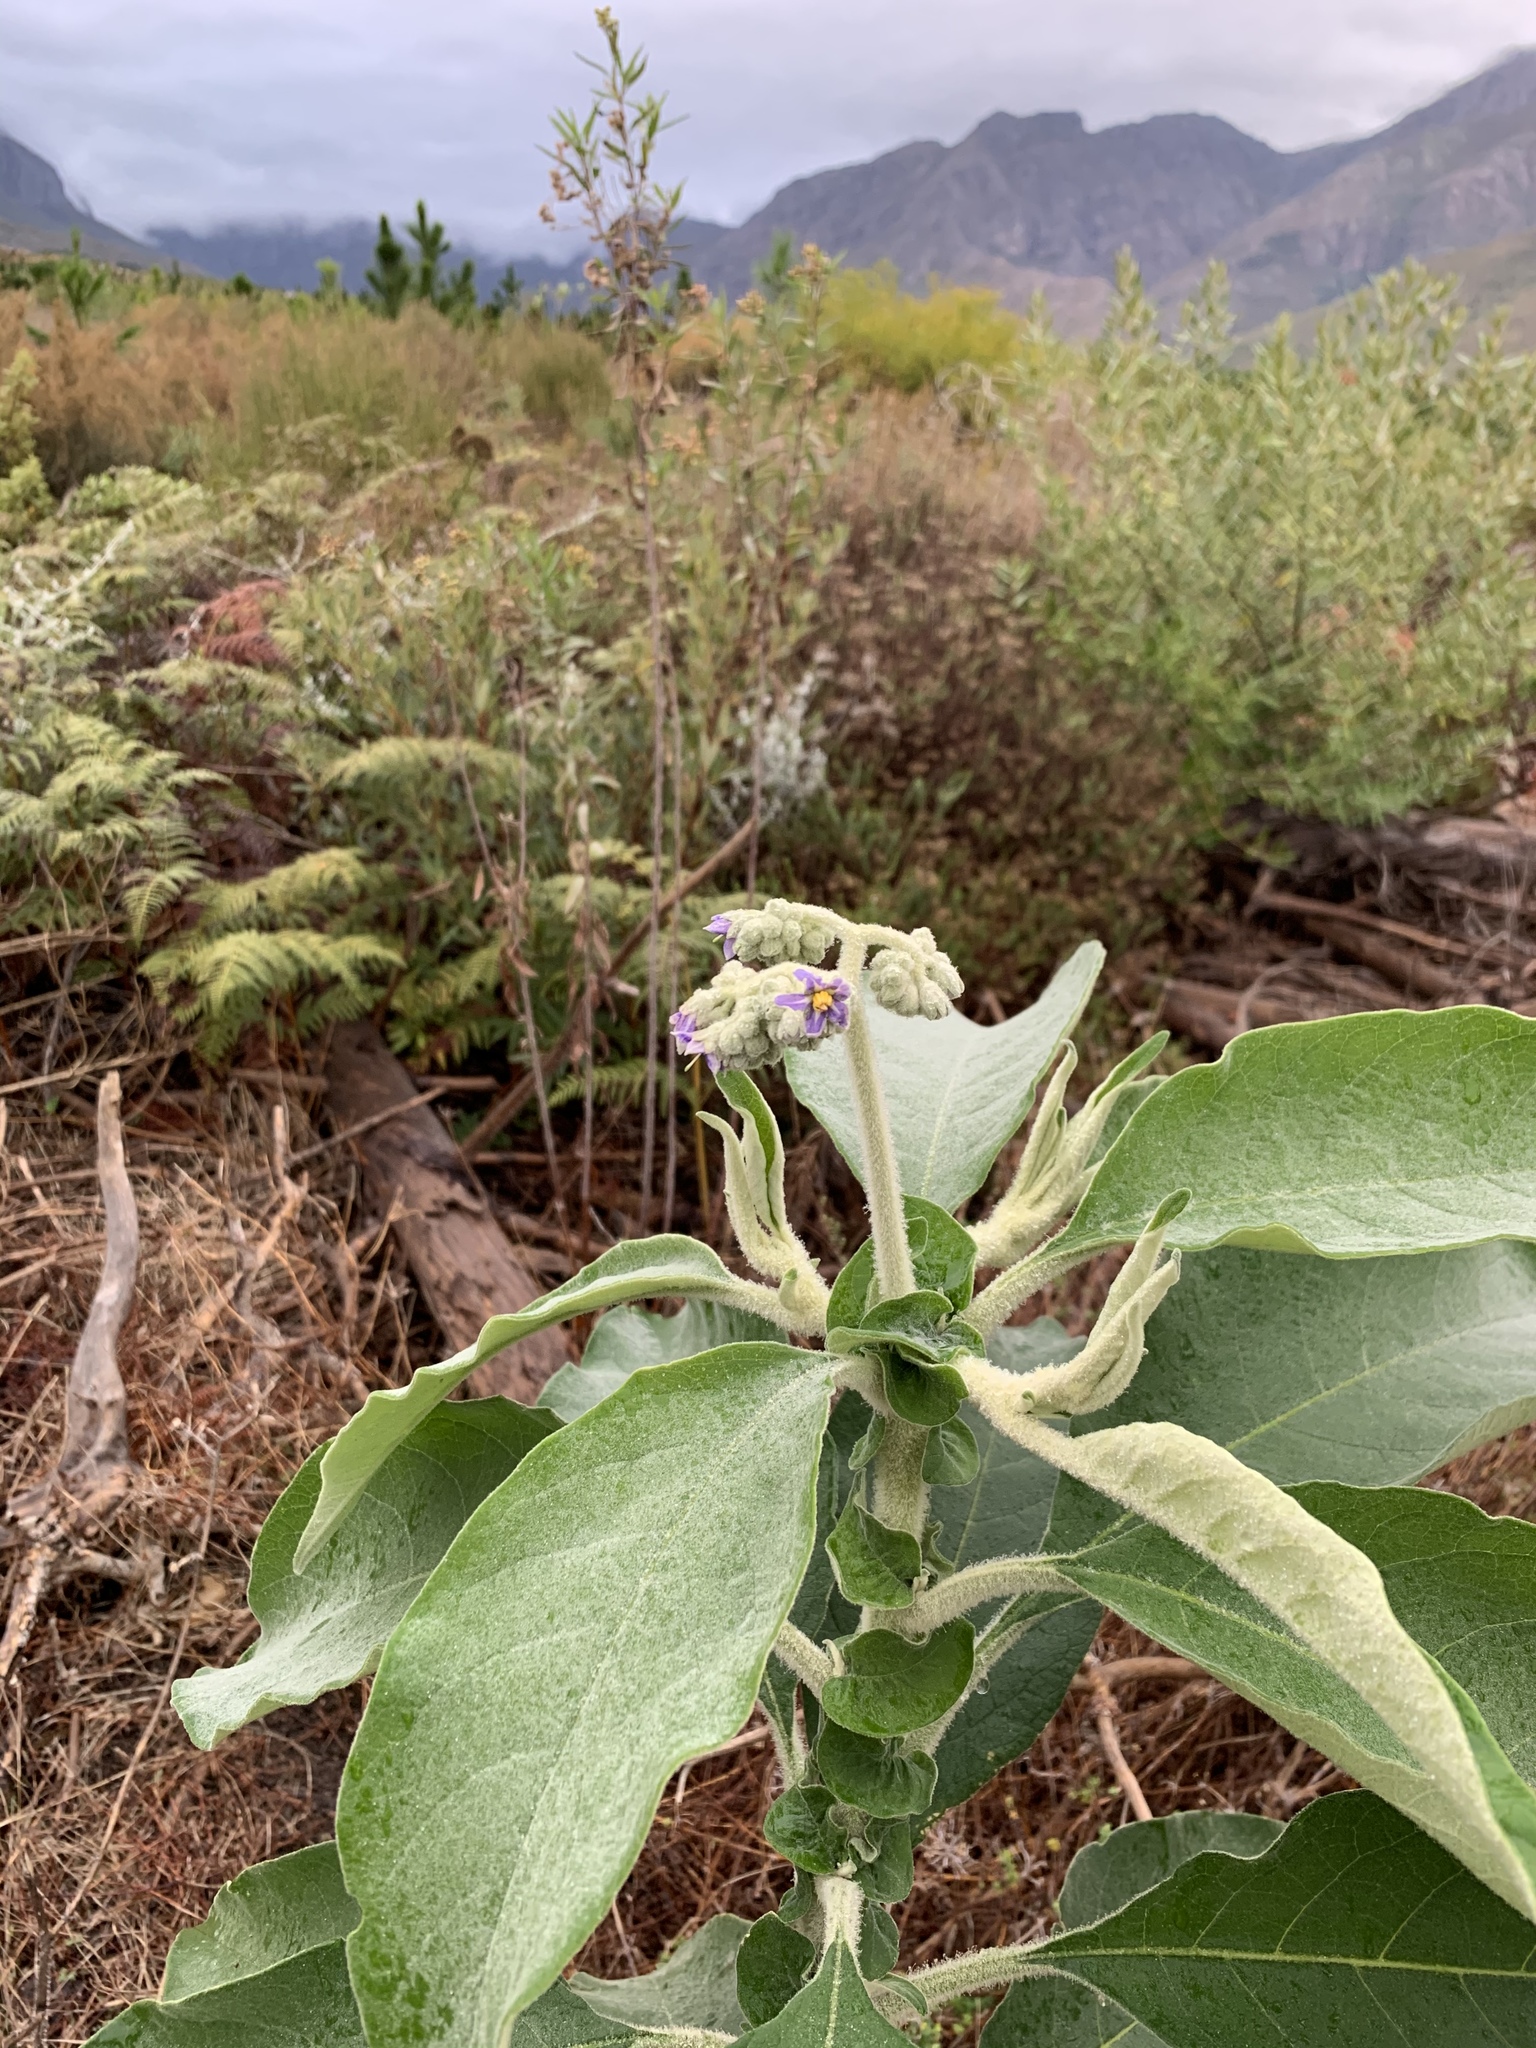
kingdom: Plantae
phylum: Tracheophyta
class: Magnoliopsida
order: Solanales
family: Solanaceae
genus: Solanum
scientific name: Solanum mauritianum
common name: Earleaf nightshade
